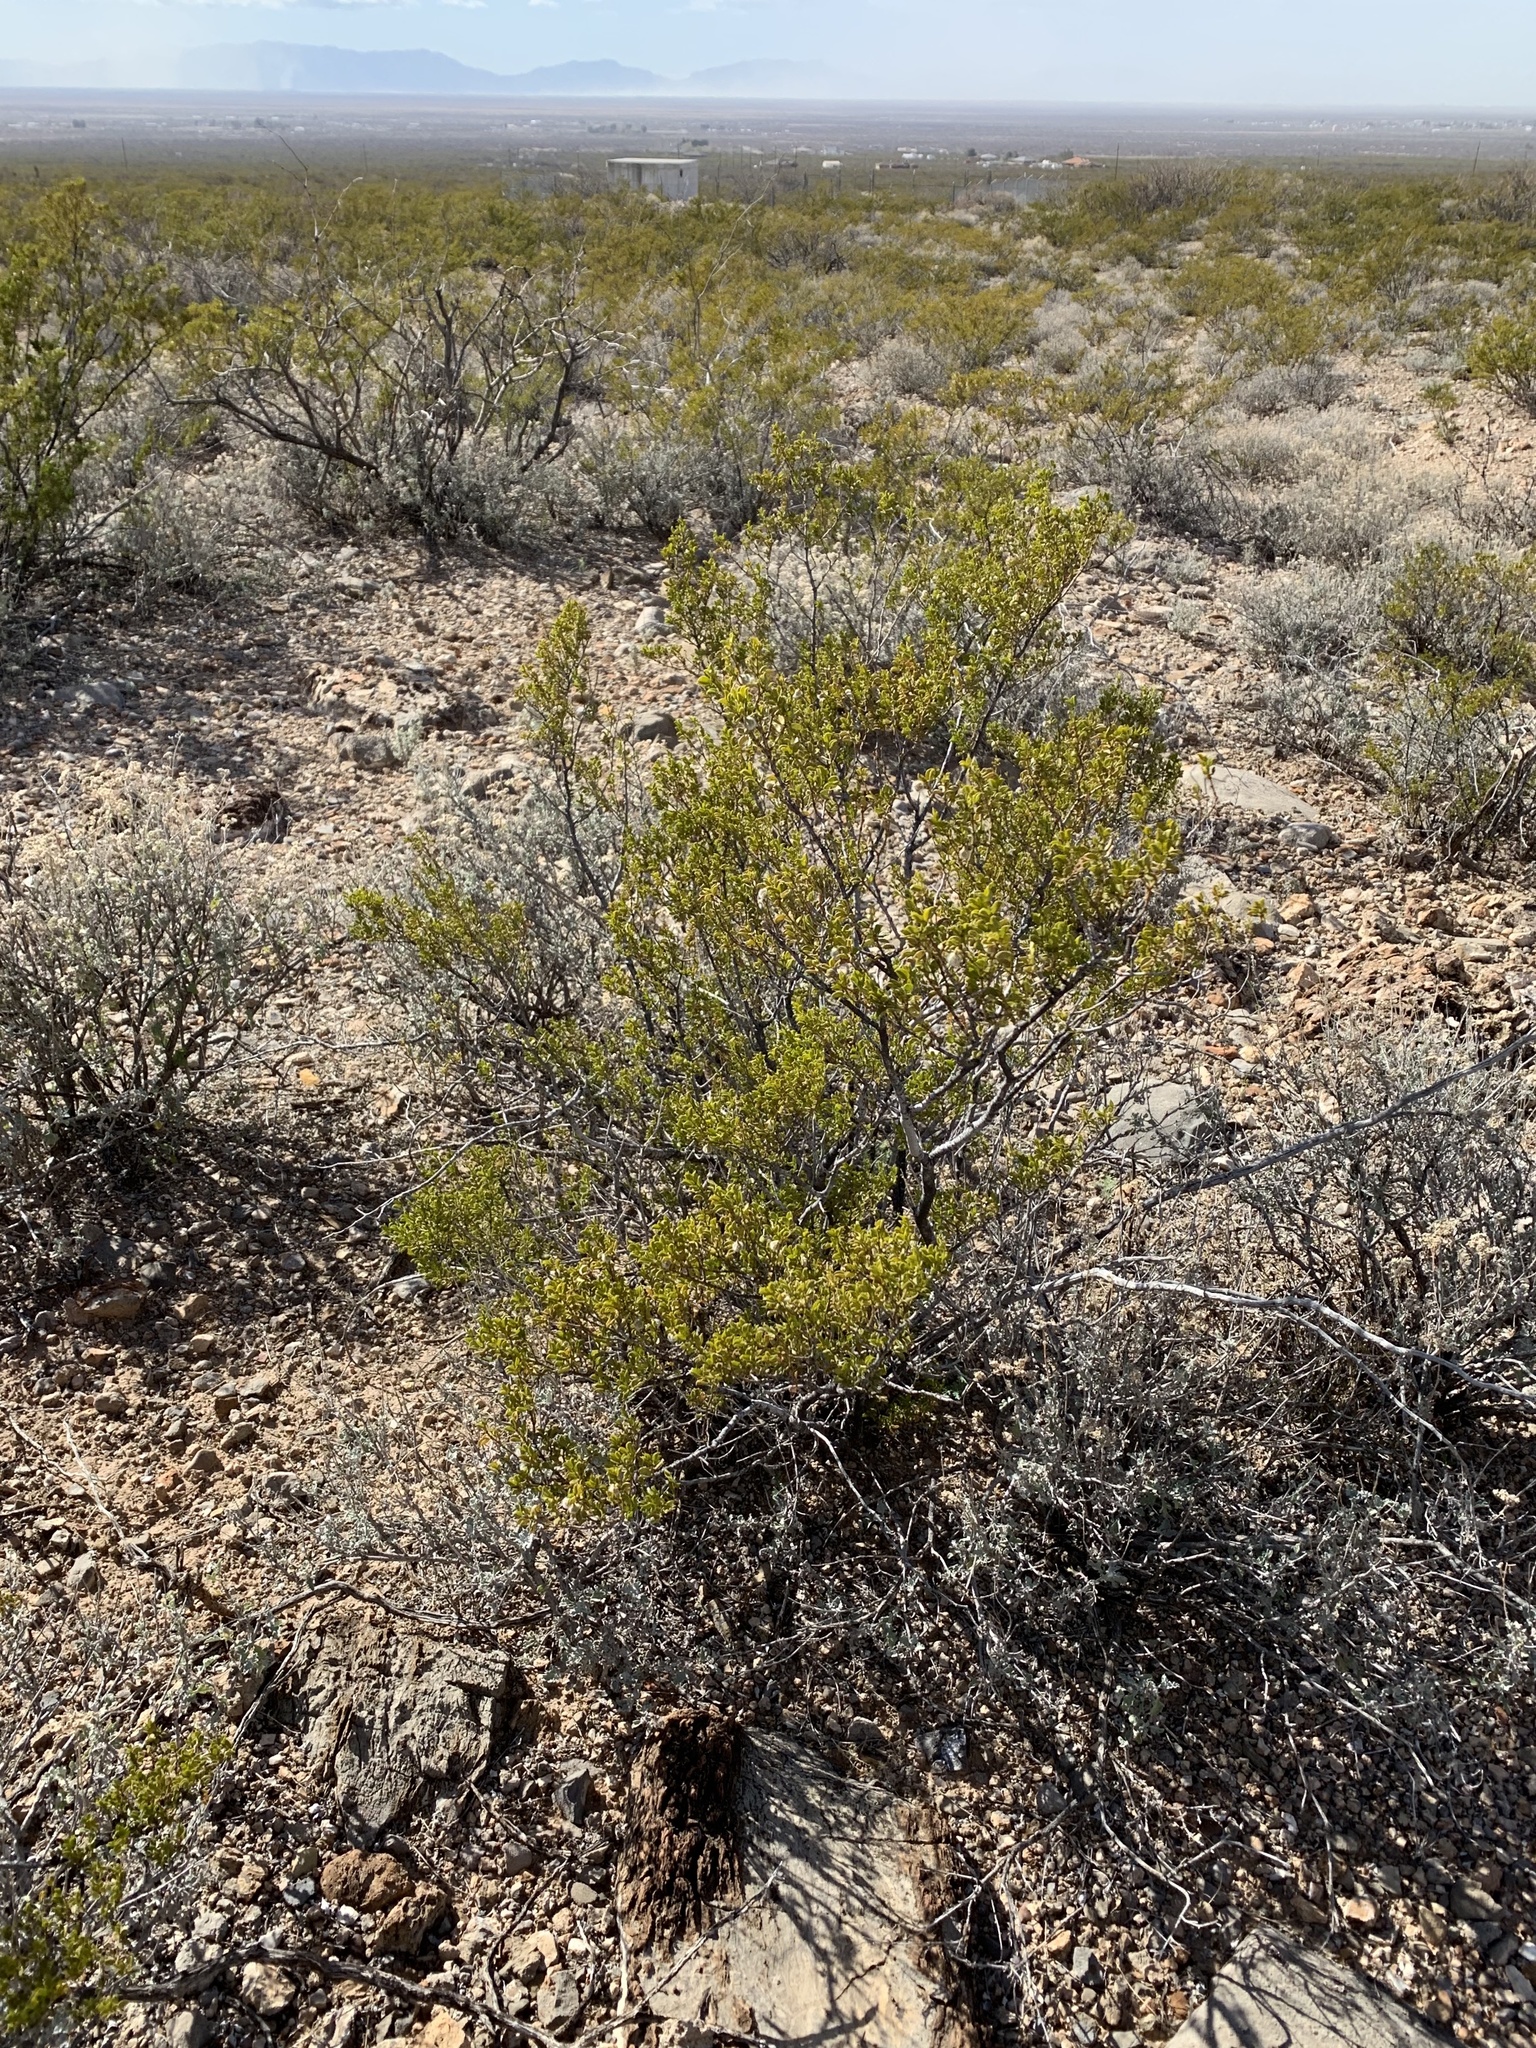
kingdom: Plantae
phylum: Tracheophyta
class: Magnoliopsida
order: Zygophyllales
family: Zygophyllaceae
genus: Larrea
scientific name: Larrea tridentata
